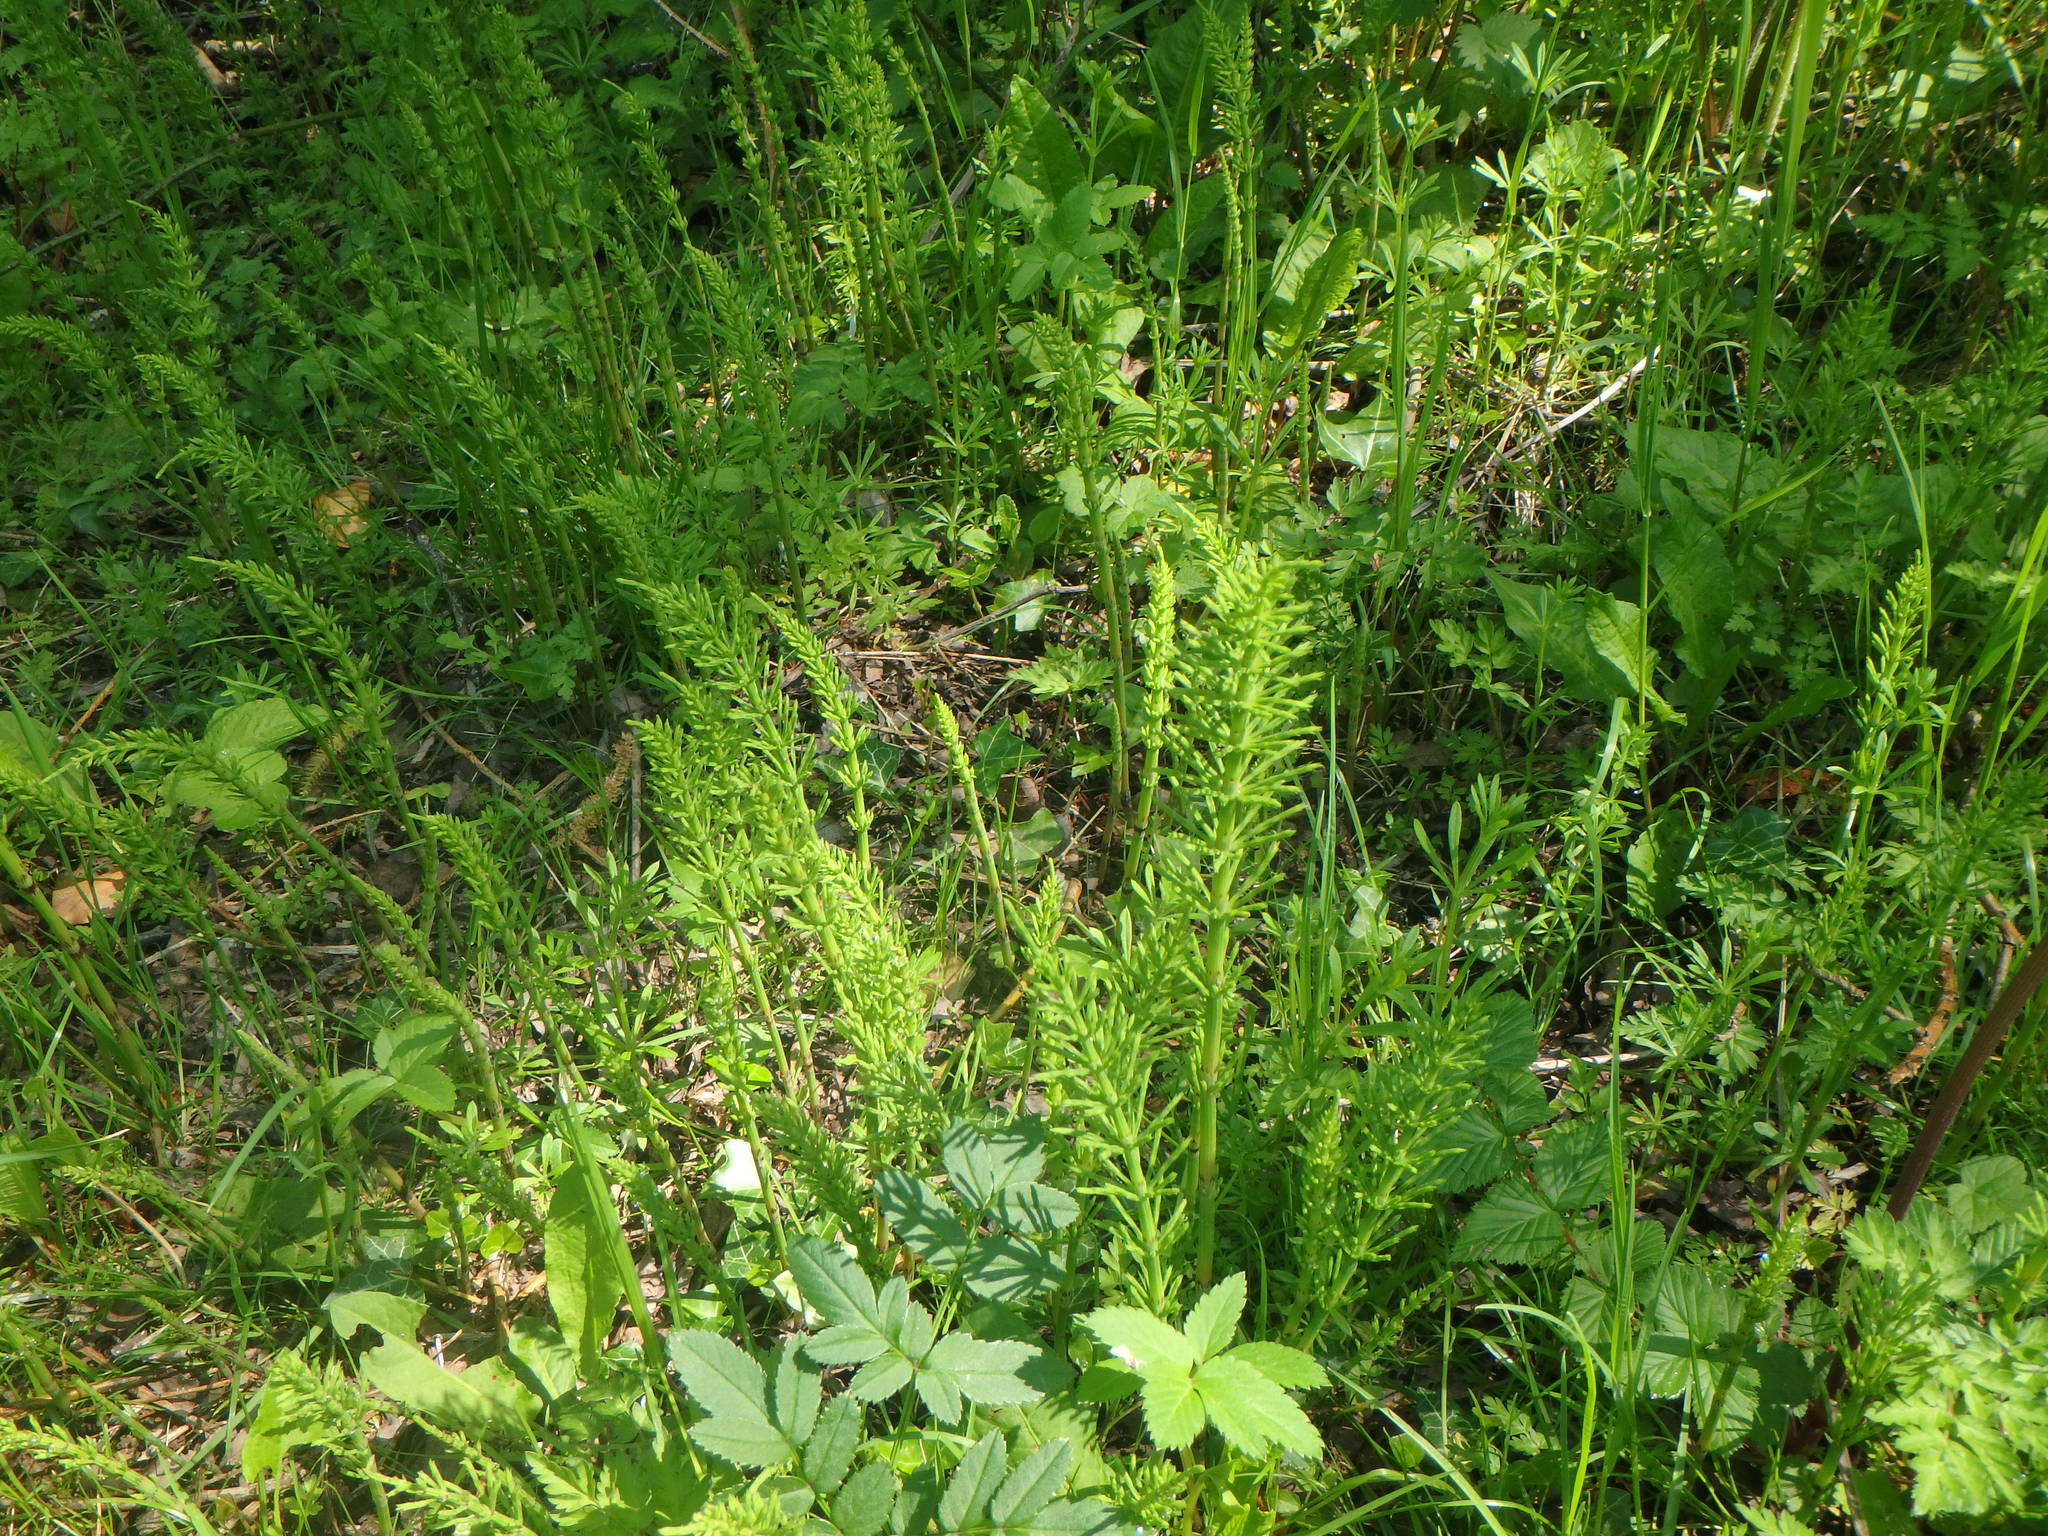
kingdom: Plantae
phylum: Tracheophyta
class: Polypodiopsida
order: Equisetales
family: Equisetaceae
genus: Equisetum
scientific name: Equisetum arvense
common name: Field horsetail
